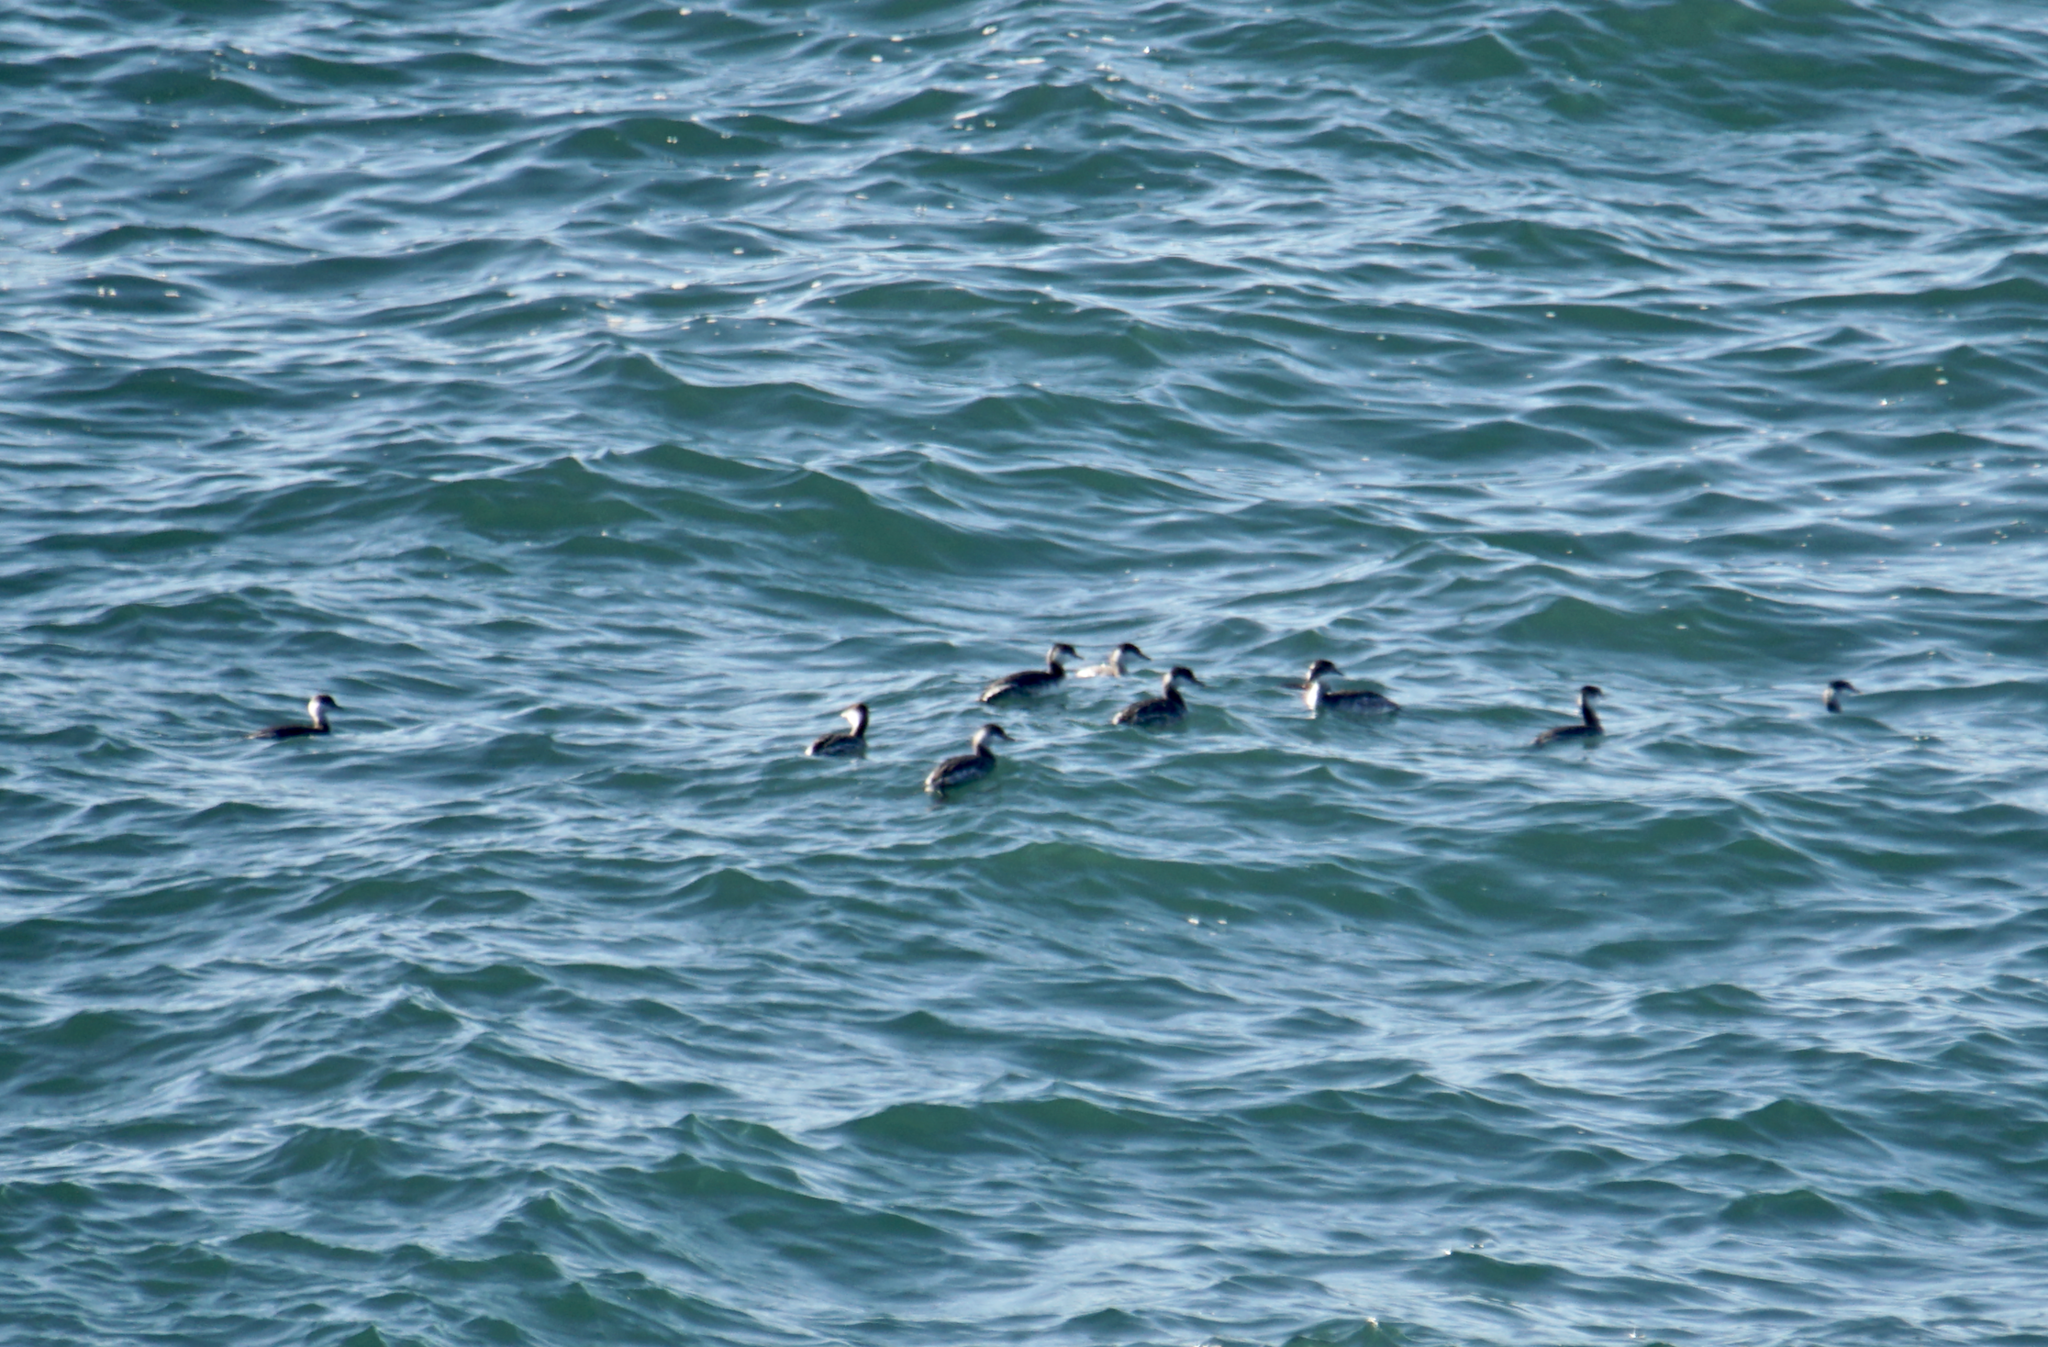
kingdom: Animalia
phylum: Chordata
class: Aves
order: Podicipediformes
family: Podicipedidae
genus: Podiceps
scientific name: Podiceps auritus
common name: Horned grebe
